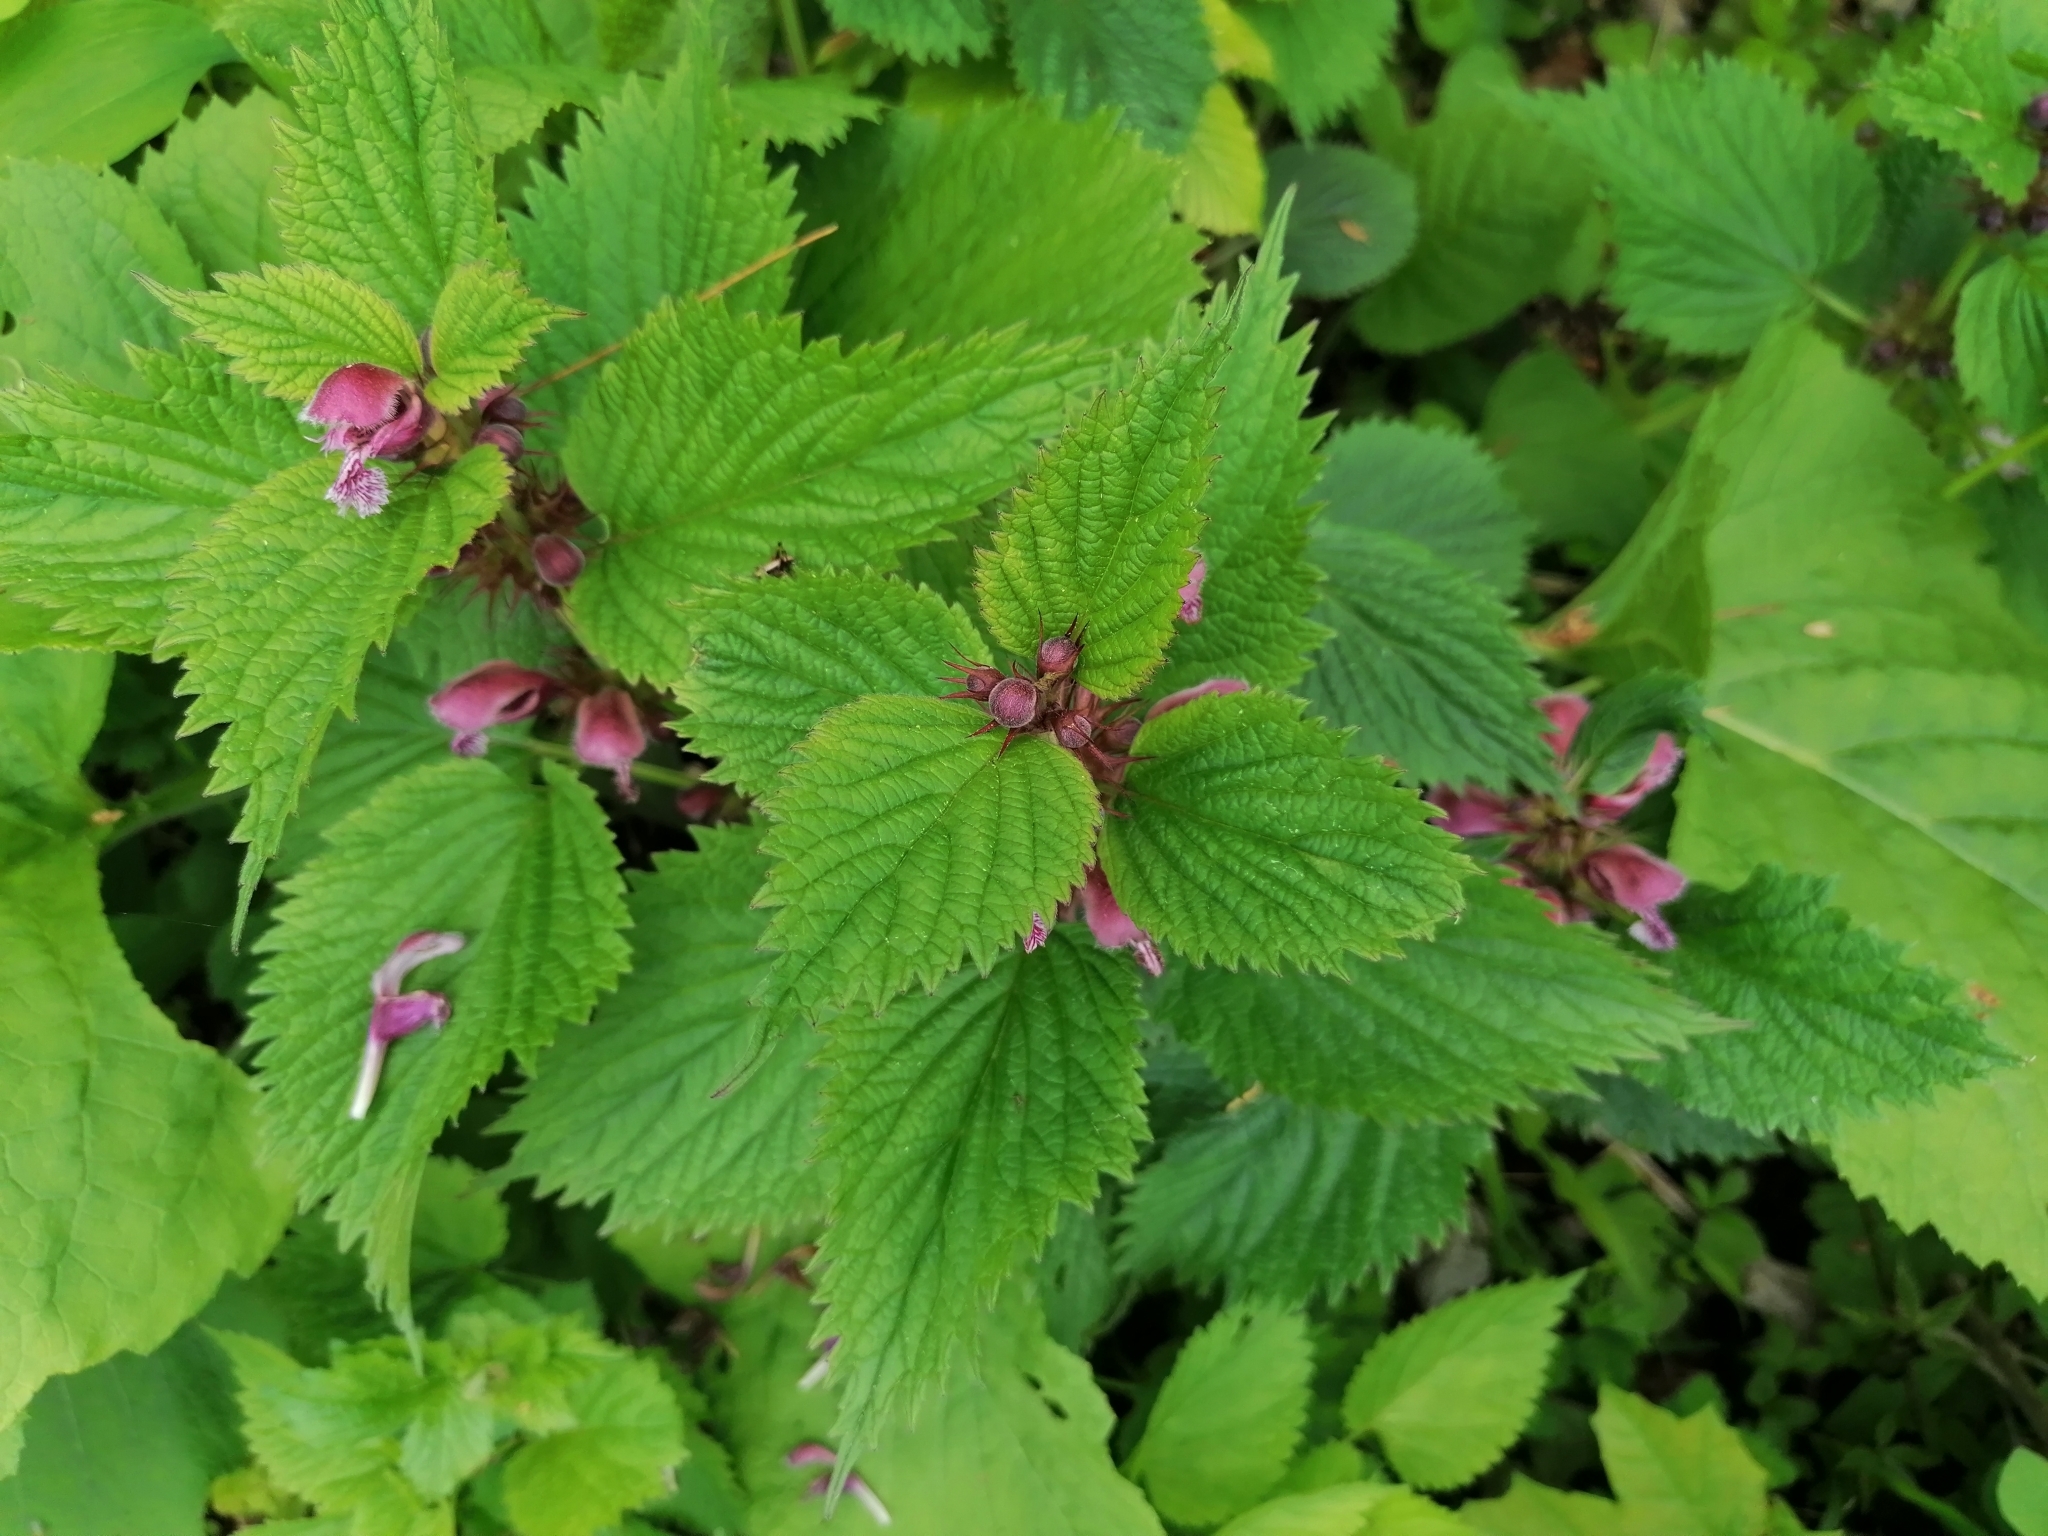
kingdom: Plantae
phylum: Tracheophyta
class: Magnoliopsida
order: Lamiales
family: Lamiaceae
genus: Lamium
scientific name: Lamium orvala
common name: Balm-leaved archangel
